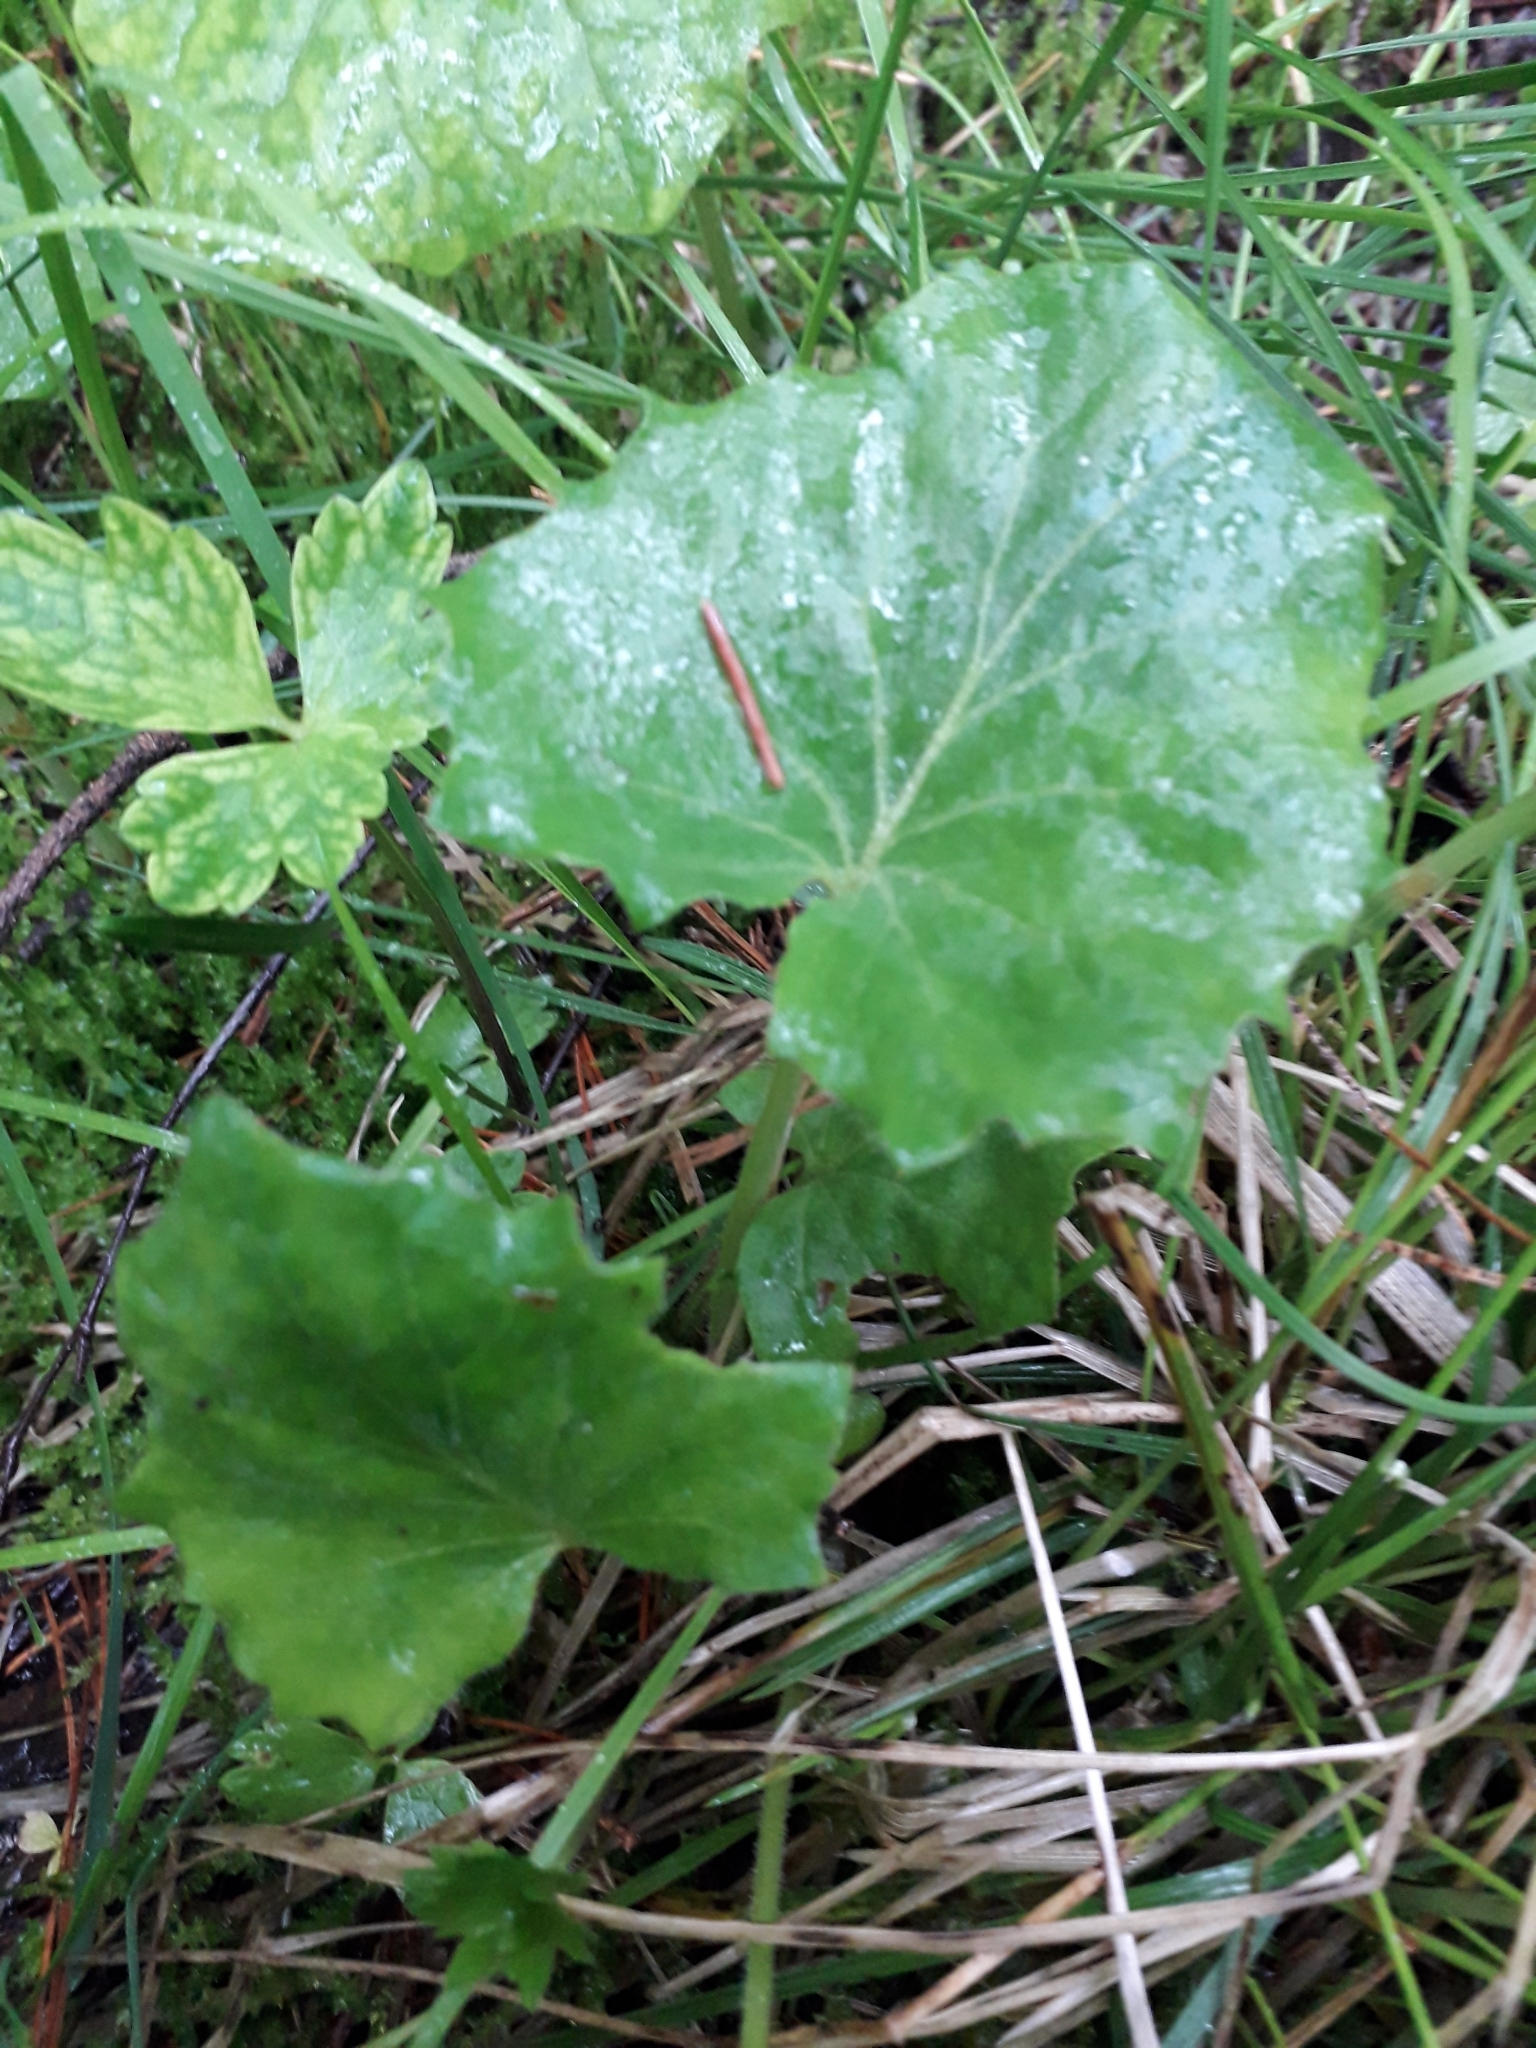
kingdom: Plantae
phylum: Tracheophyta
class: Magnoliopsida
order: Asterales
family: Asteraceae
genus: Tussilago
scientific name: Tussilago farfara
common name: Coltsfoot
